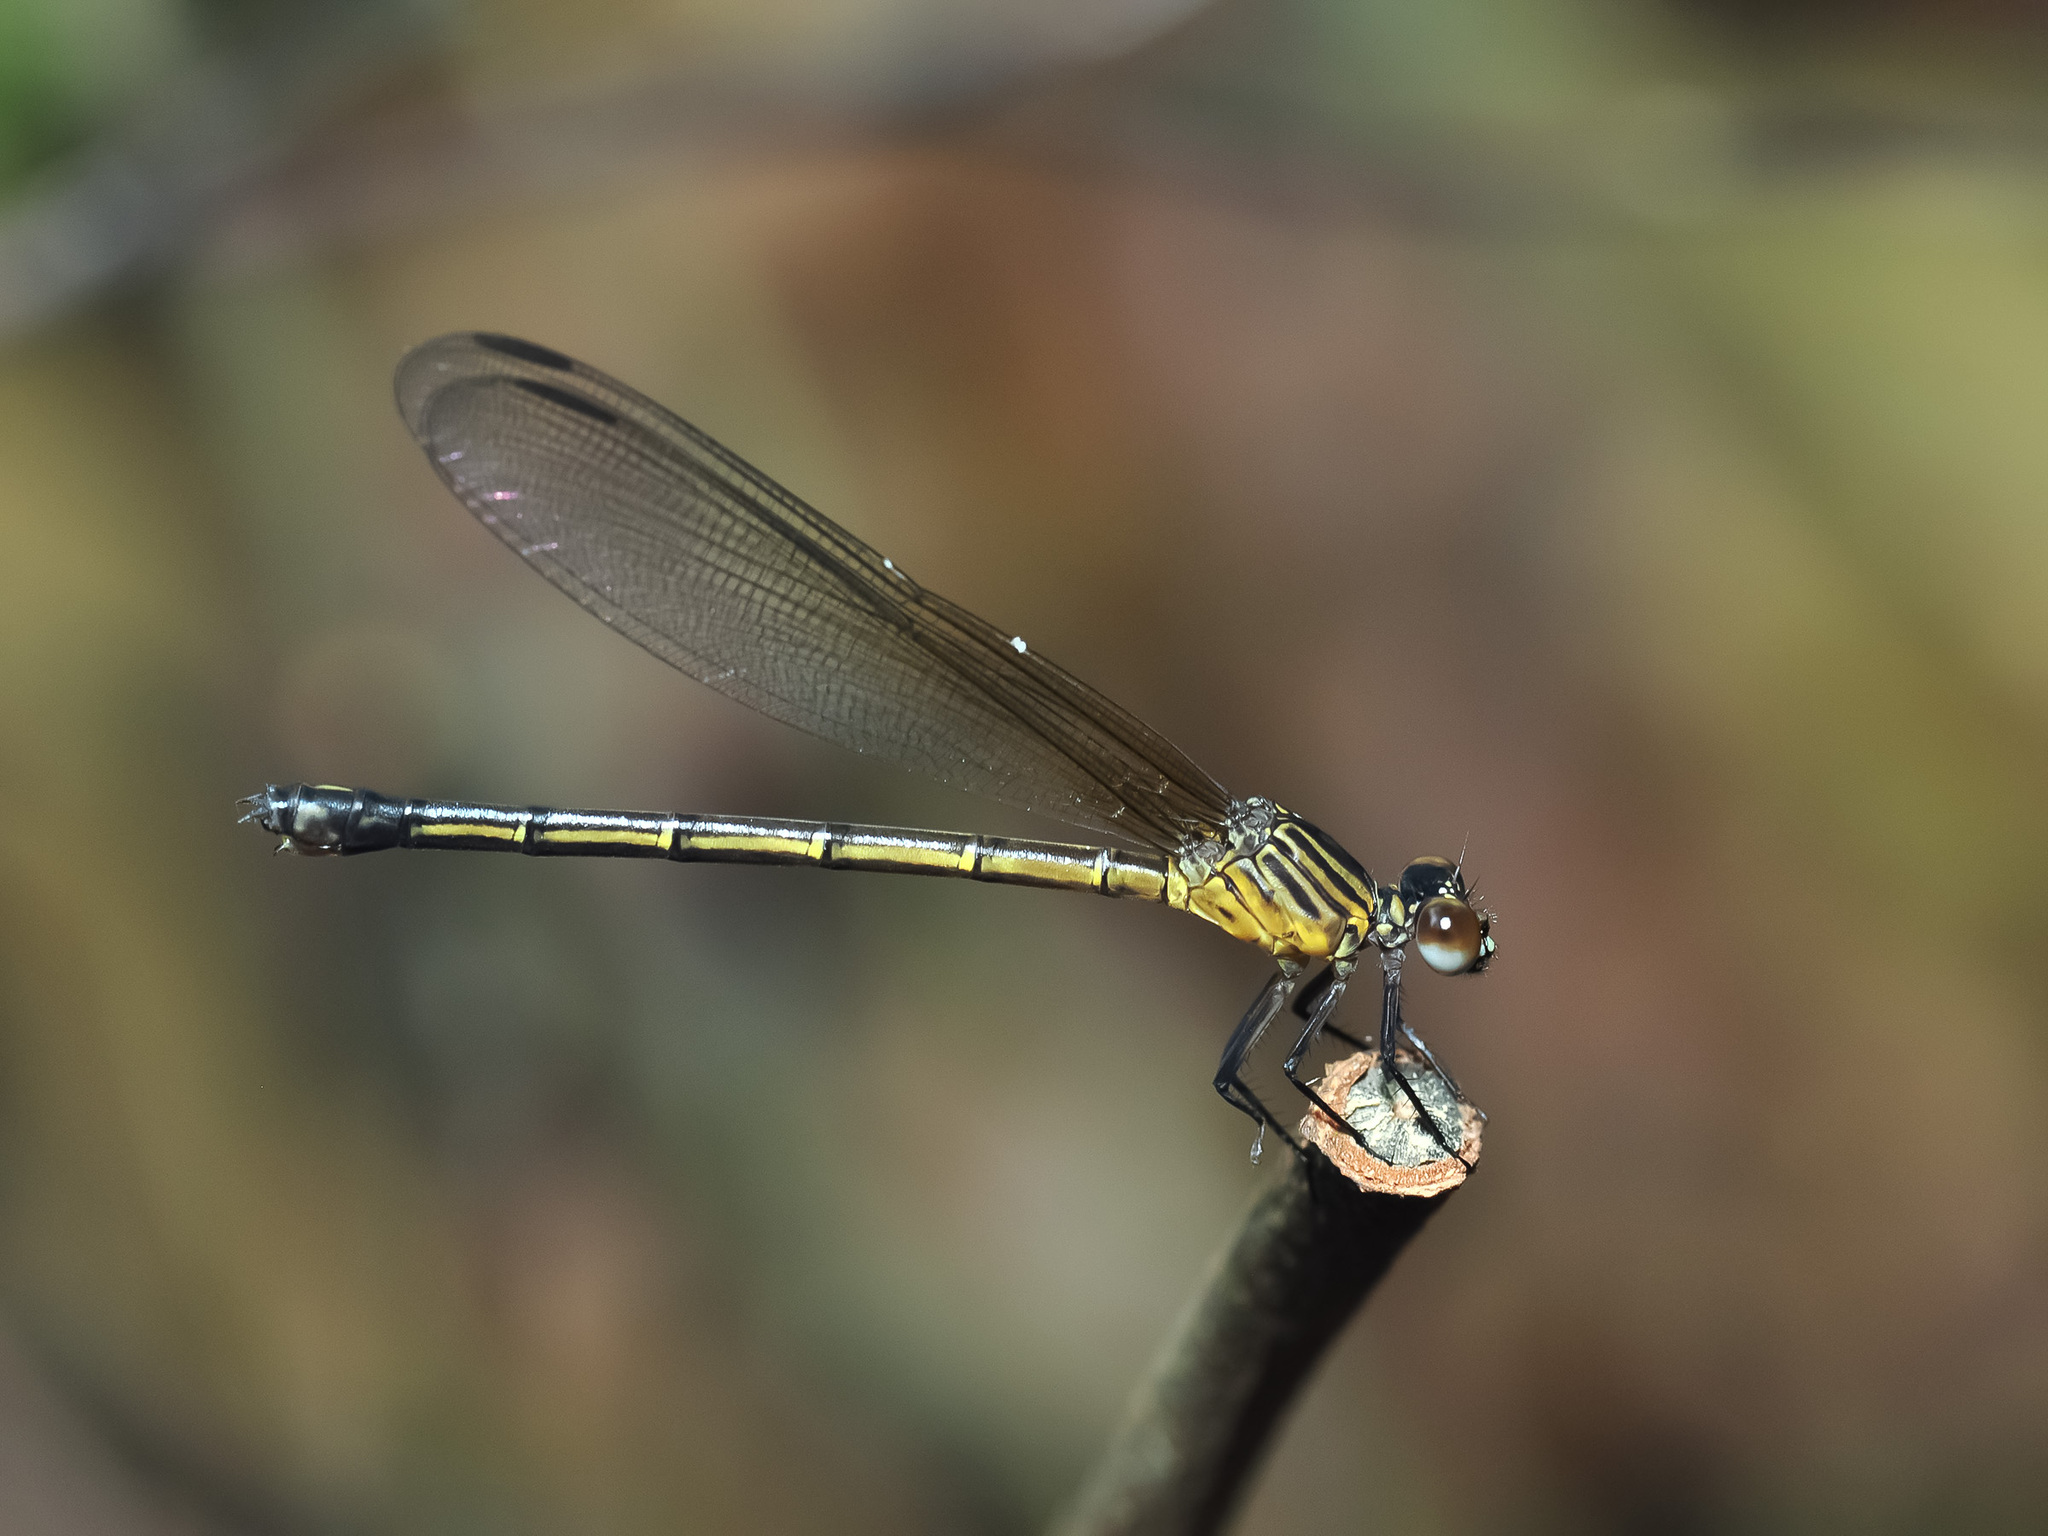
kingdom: Animalia
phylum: Arthropoda
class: Insecta
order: Odonata
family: Euphaeidae
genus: Euphaea
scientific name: Euphaea ochracea
